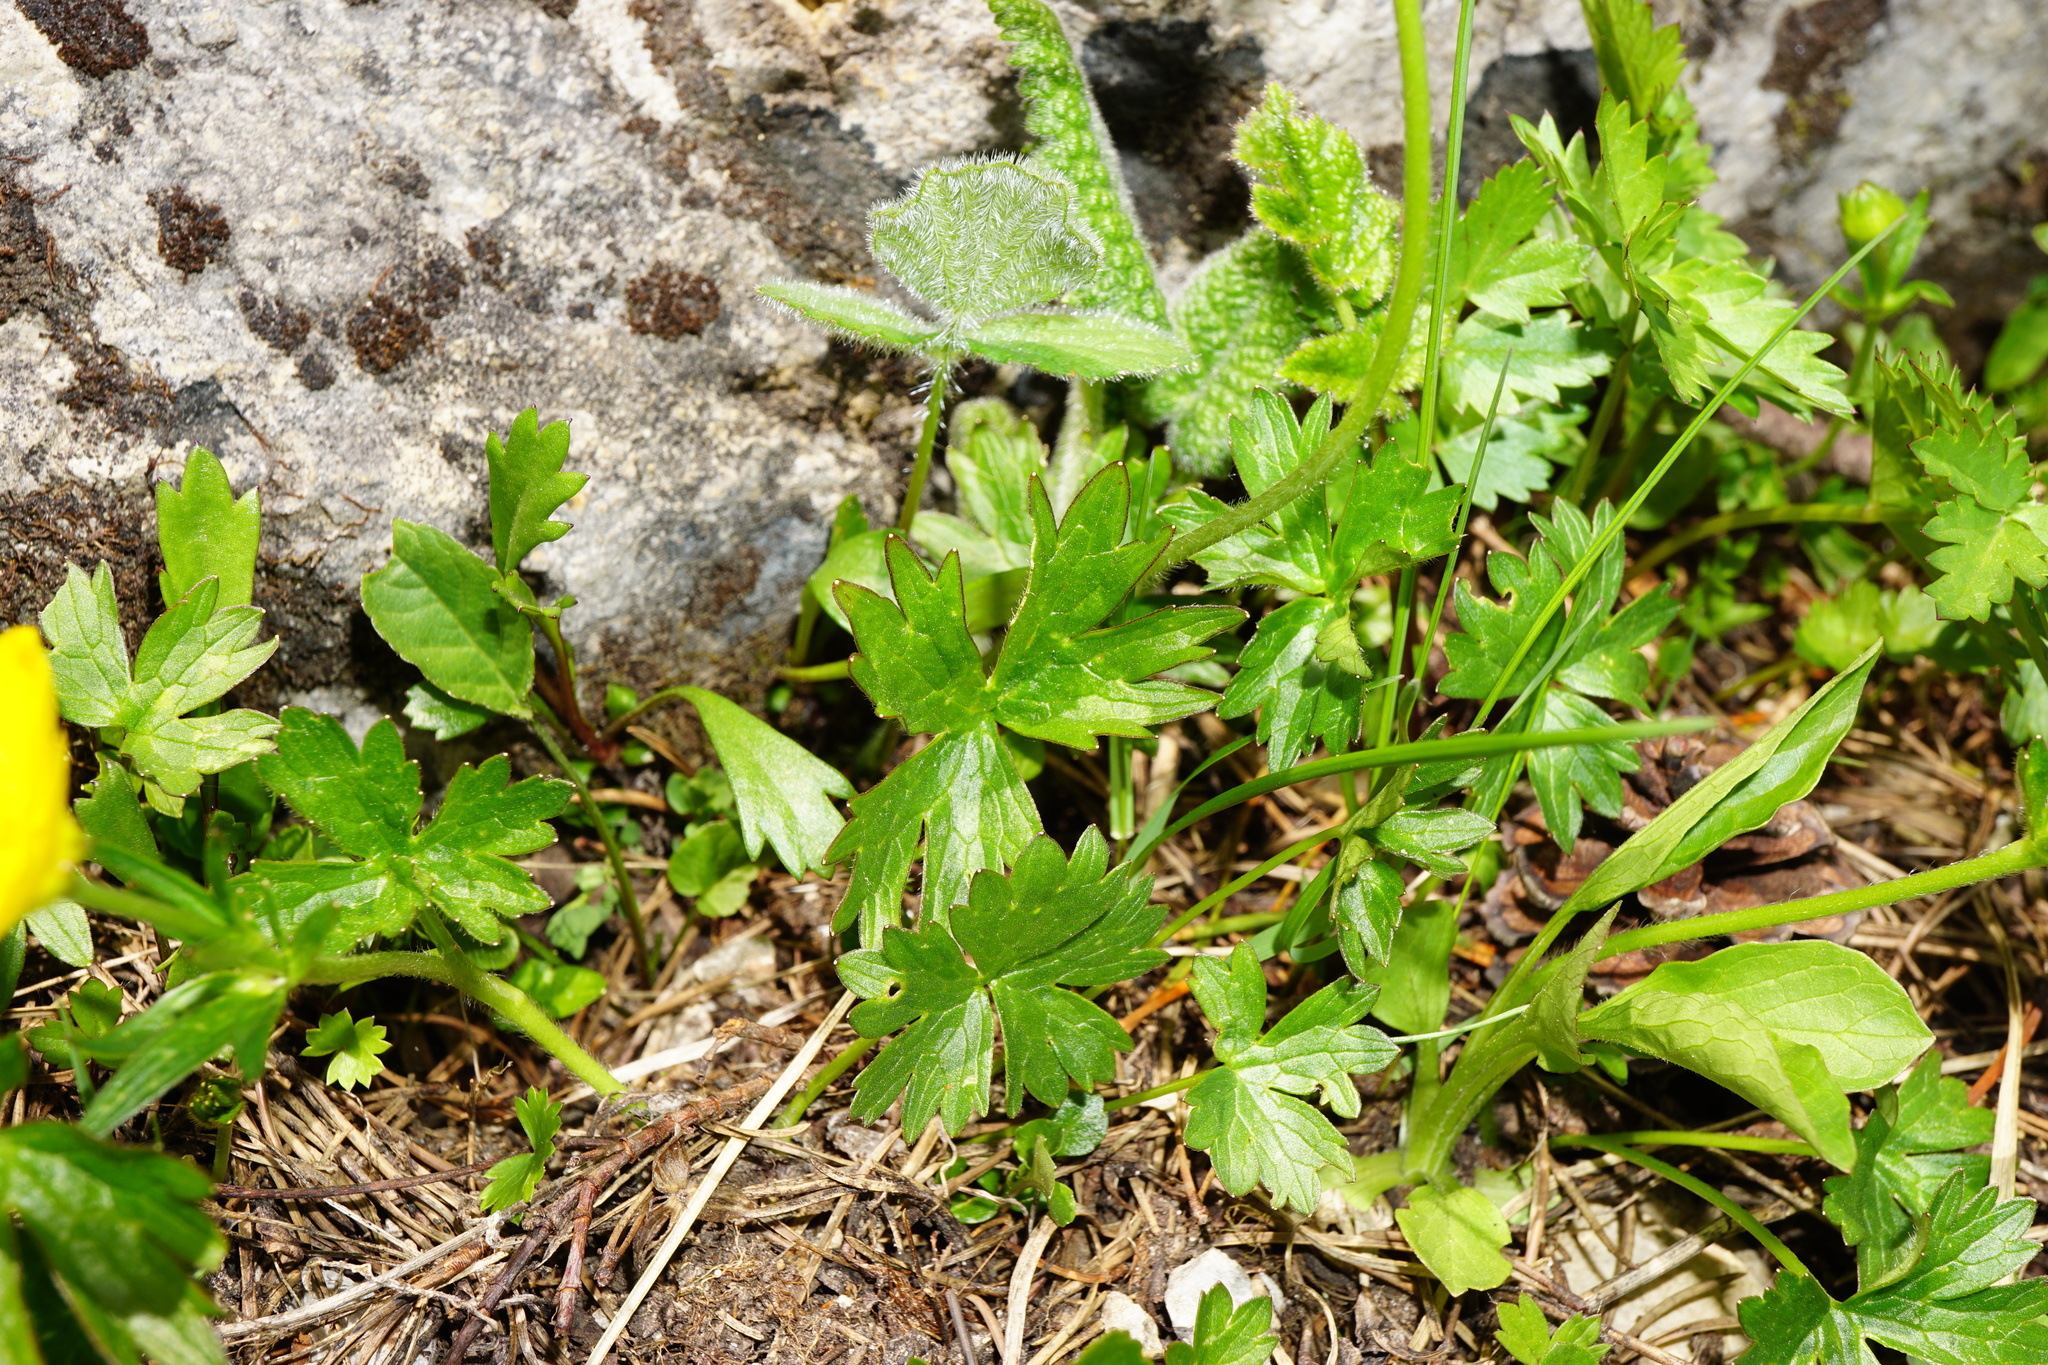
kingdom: Plantae
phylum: Tracheophyta
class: Magnoliopsida
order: Ranunculales
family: Ranunculaceae
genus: Ranunculus
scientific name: Ranunculus montanus
